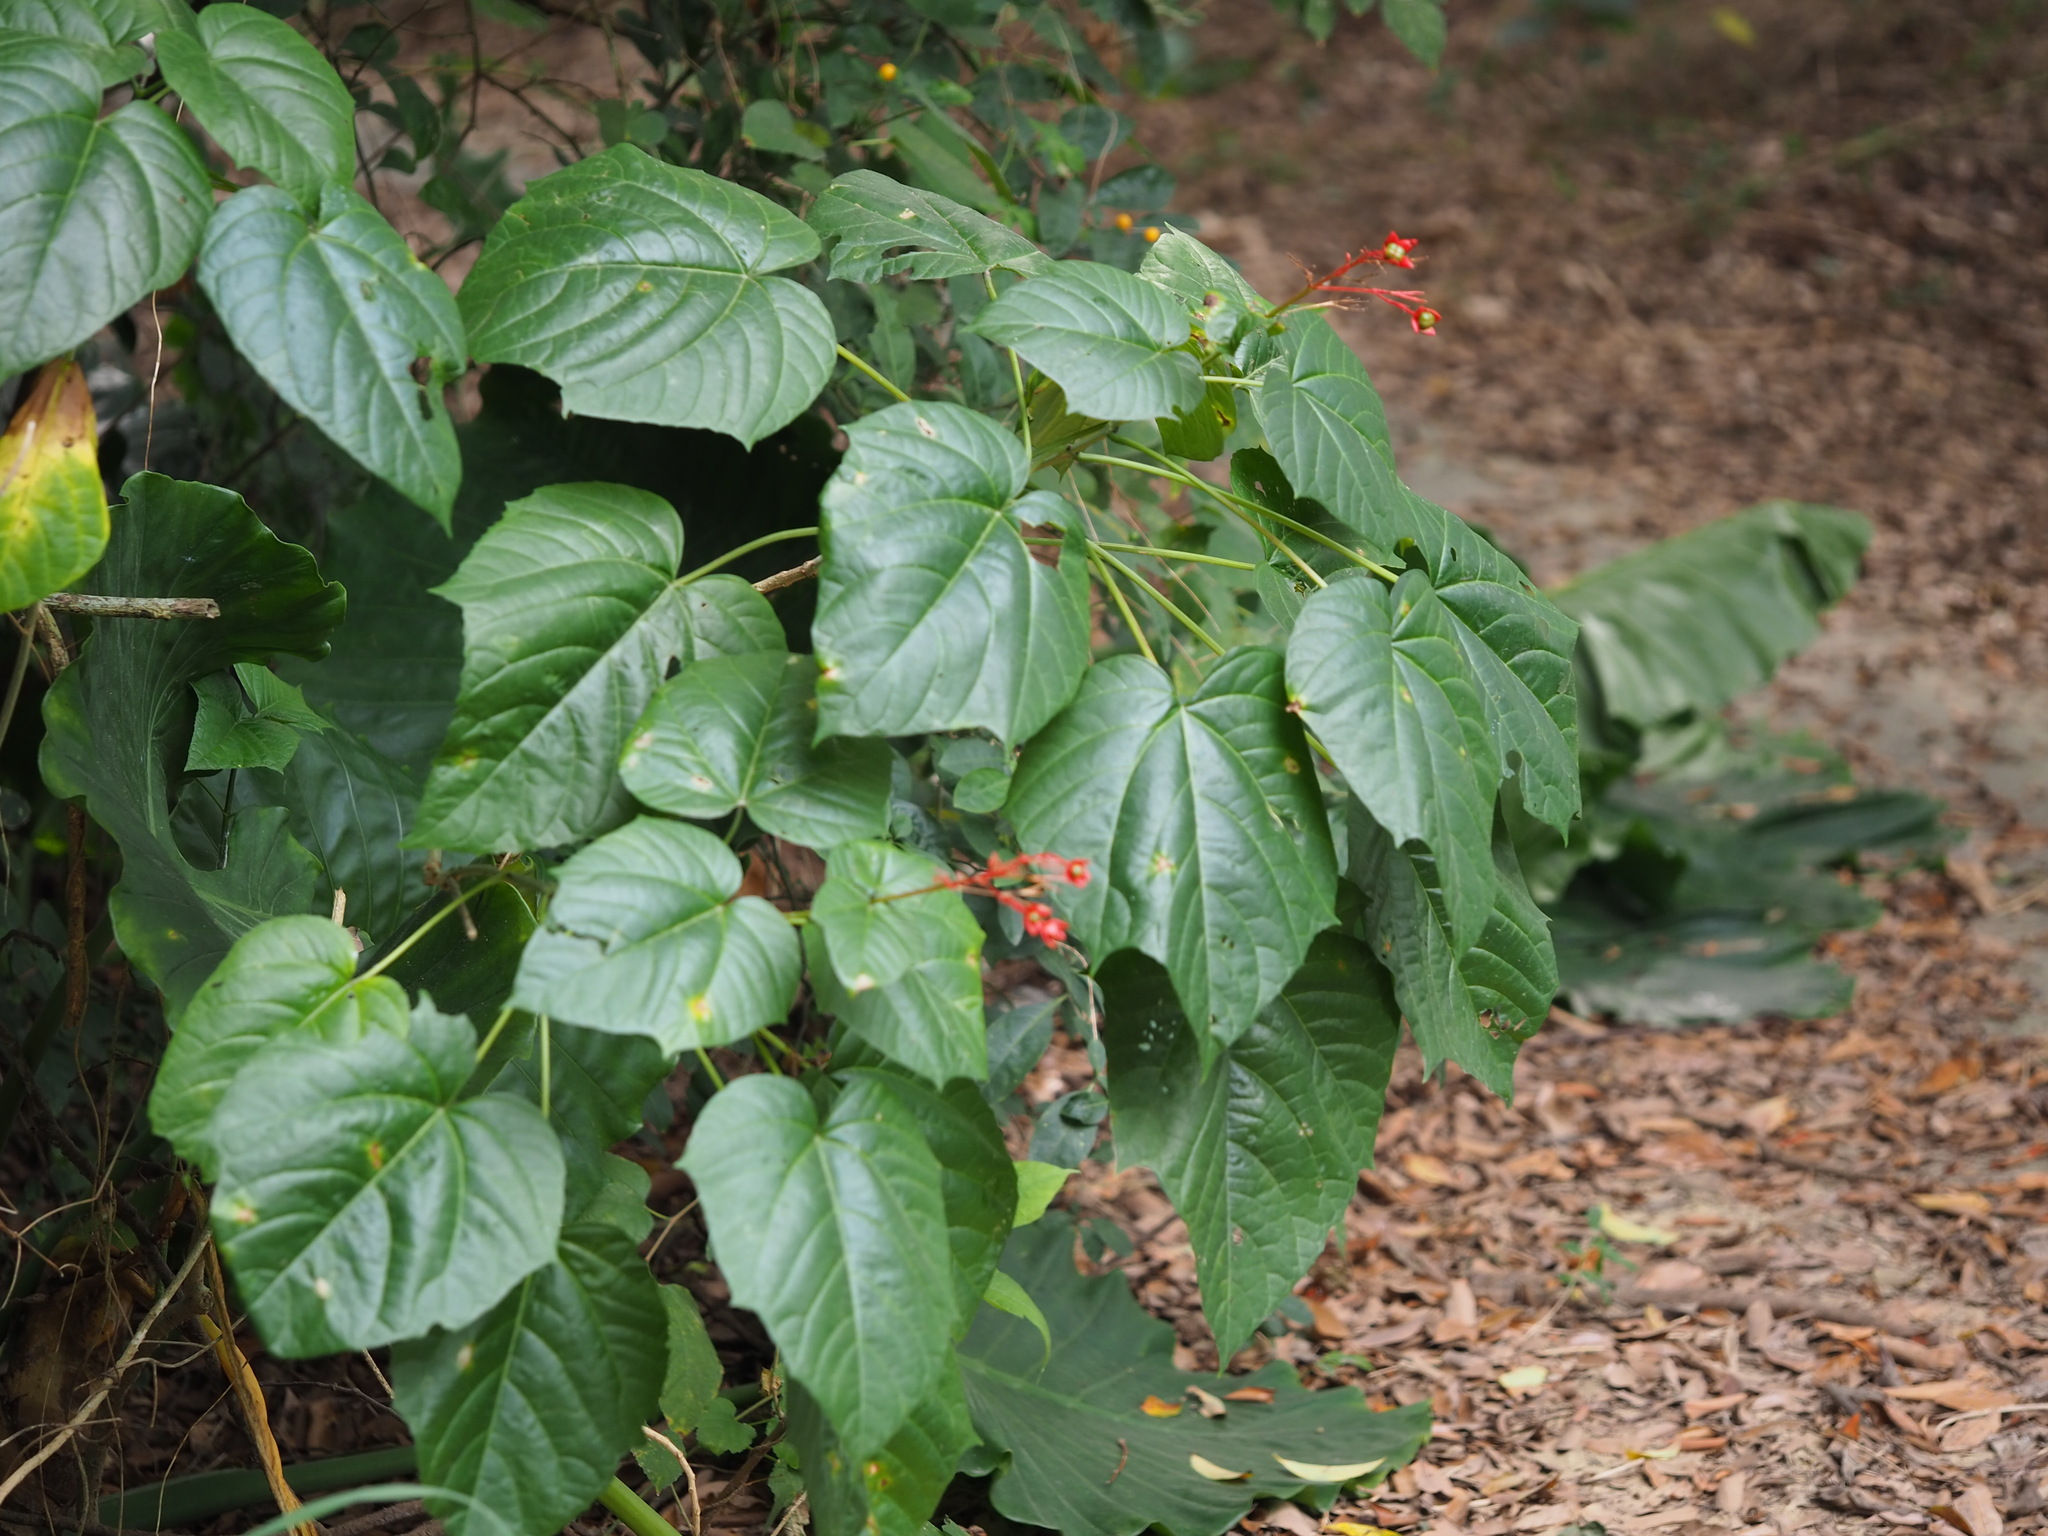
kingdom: Plantae
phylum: Tracheophyta
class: Magnoliopsida
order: Lamiales
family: Lamiaceae
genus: Clerodendrum
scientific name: Clerodendrum japonicum
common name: Japanese glorybower
